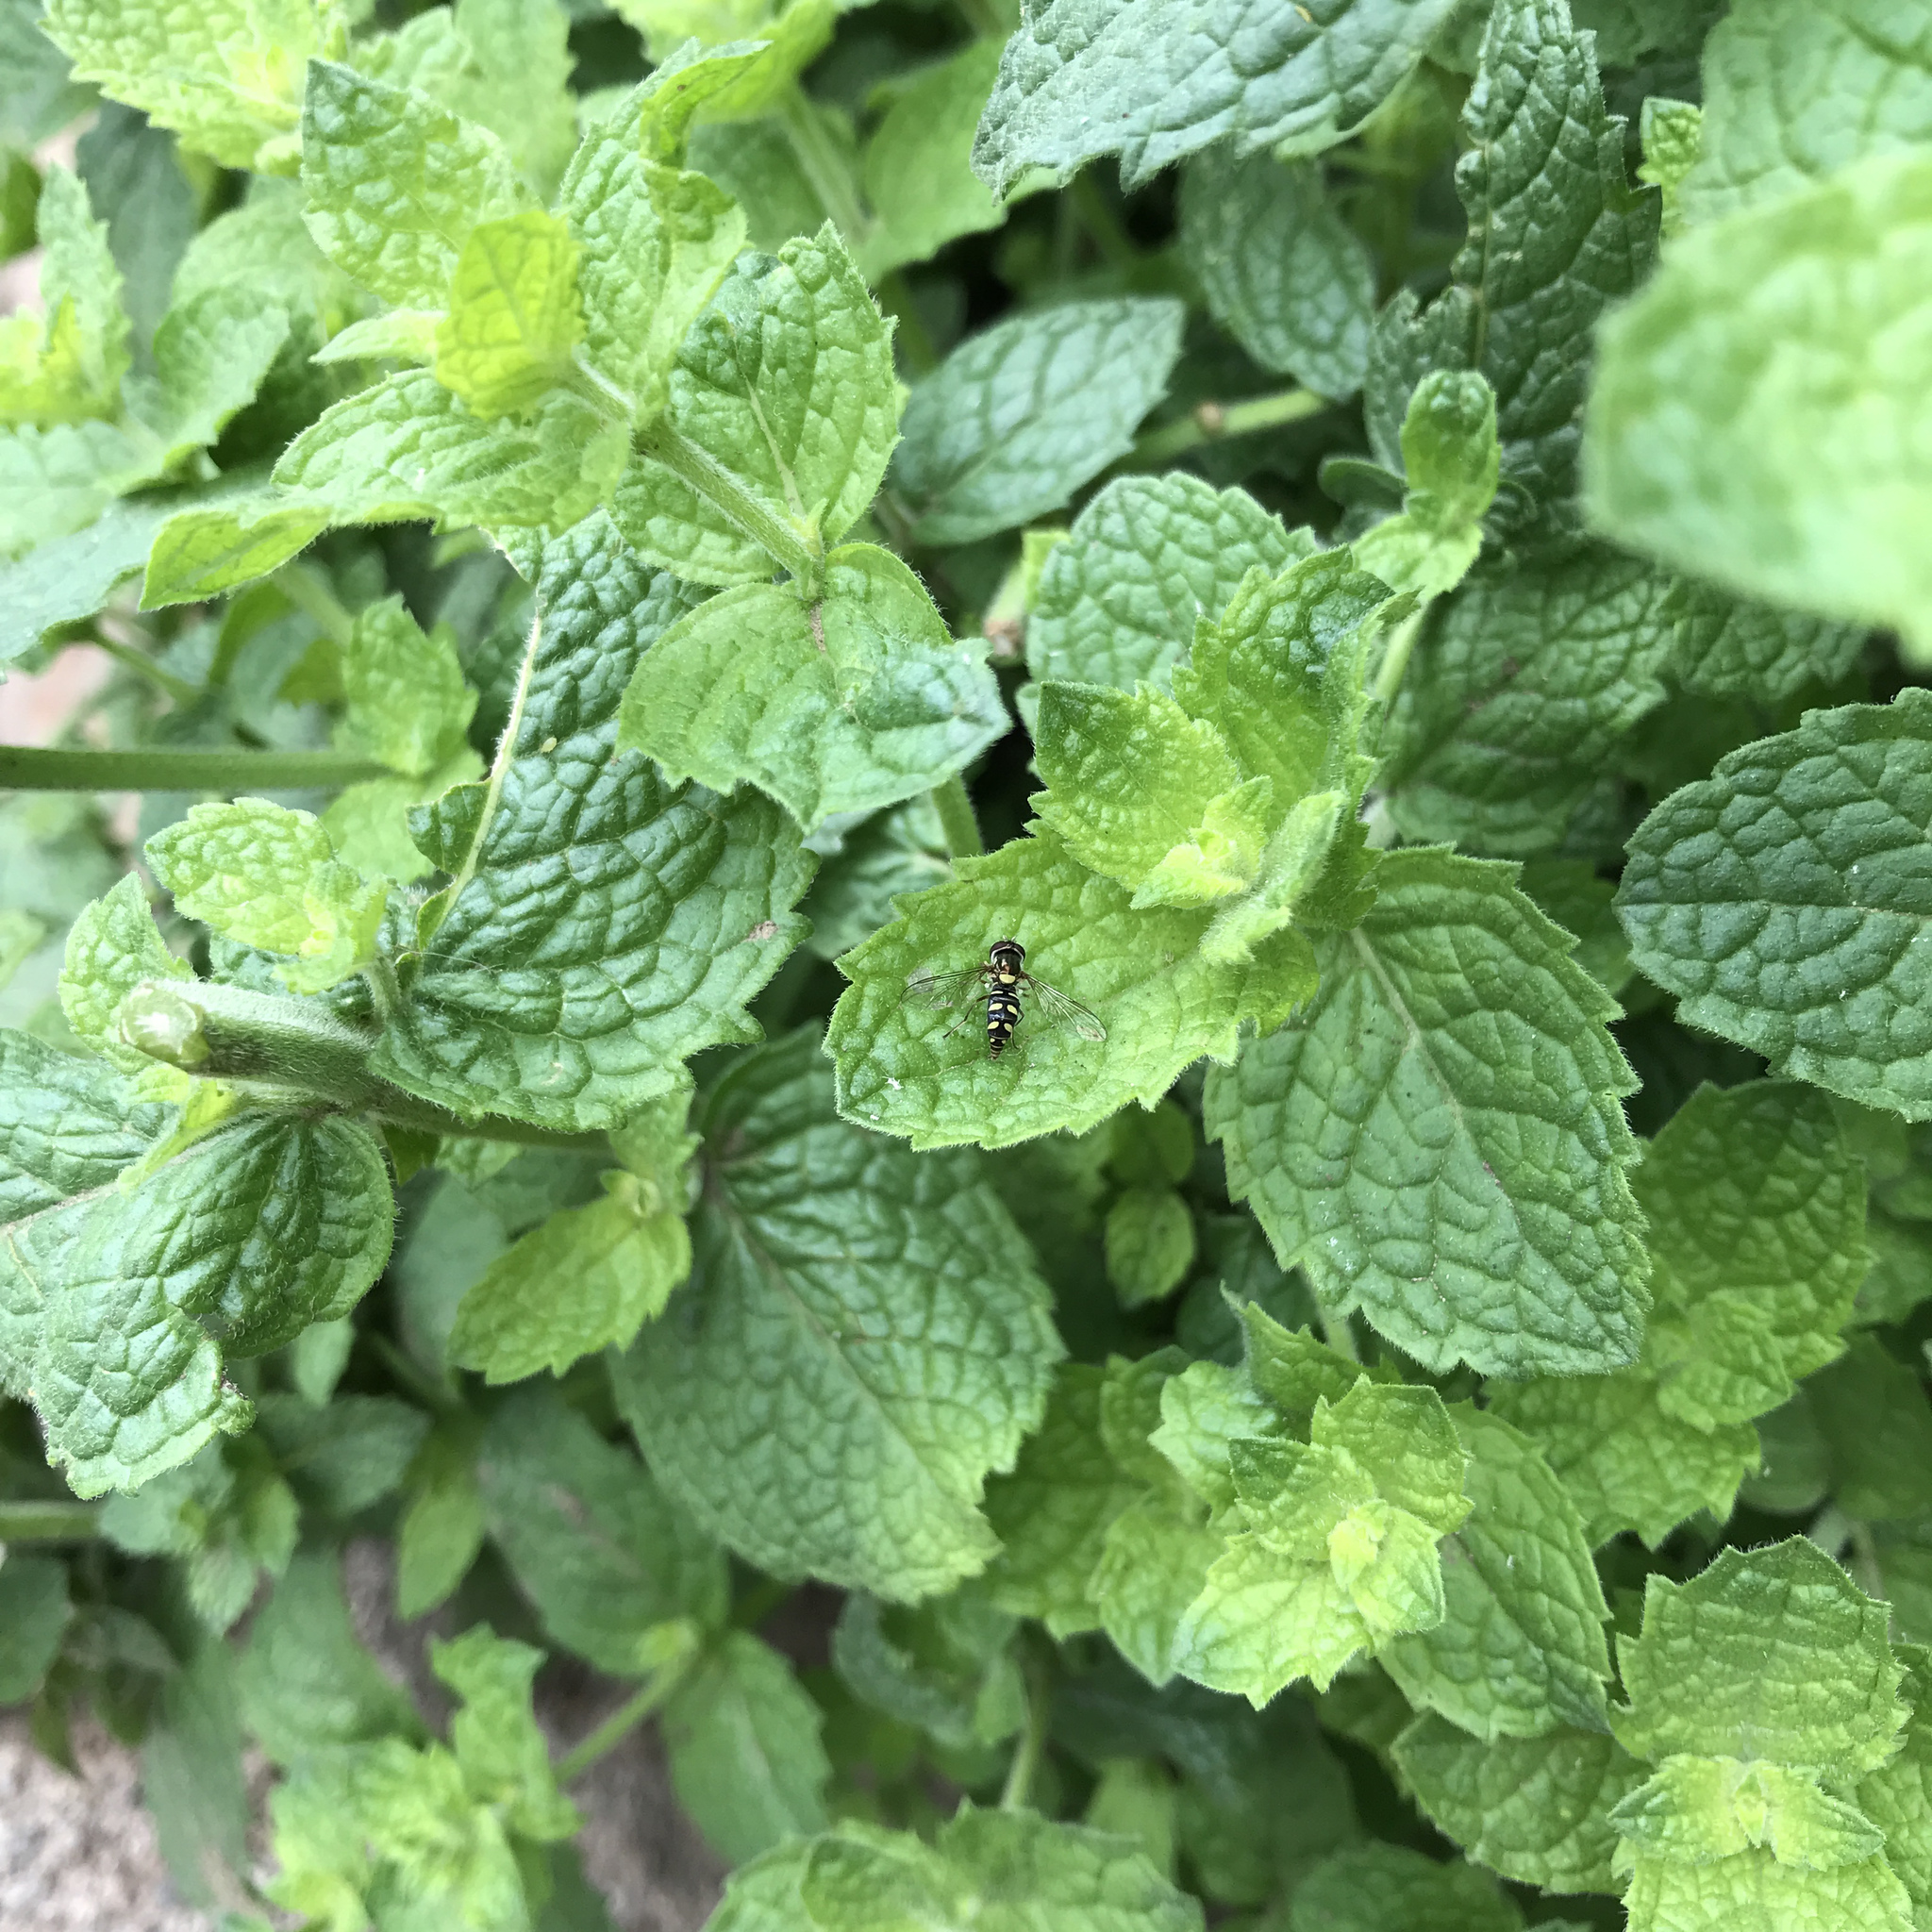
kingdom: Animalia
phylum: Arthropoda
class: Insecta
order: Diptera
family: Syrphidae
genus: Allograpta
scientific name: Allograpta hortensis
